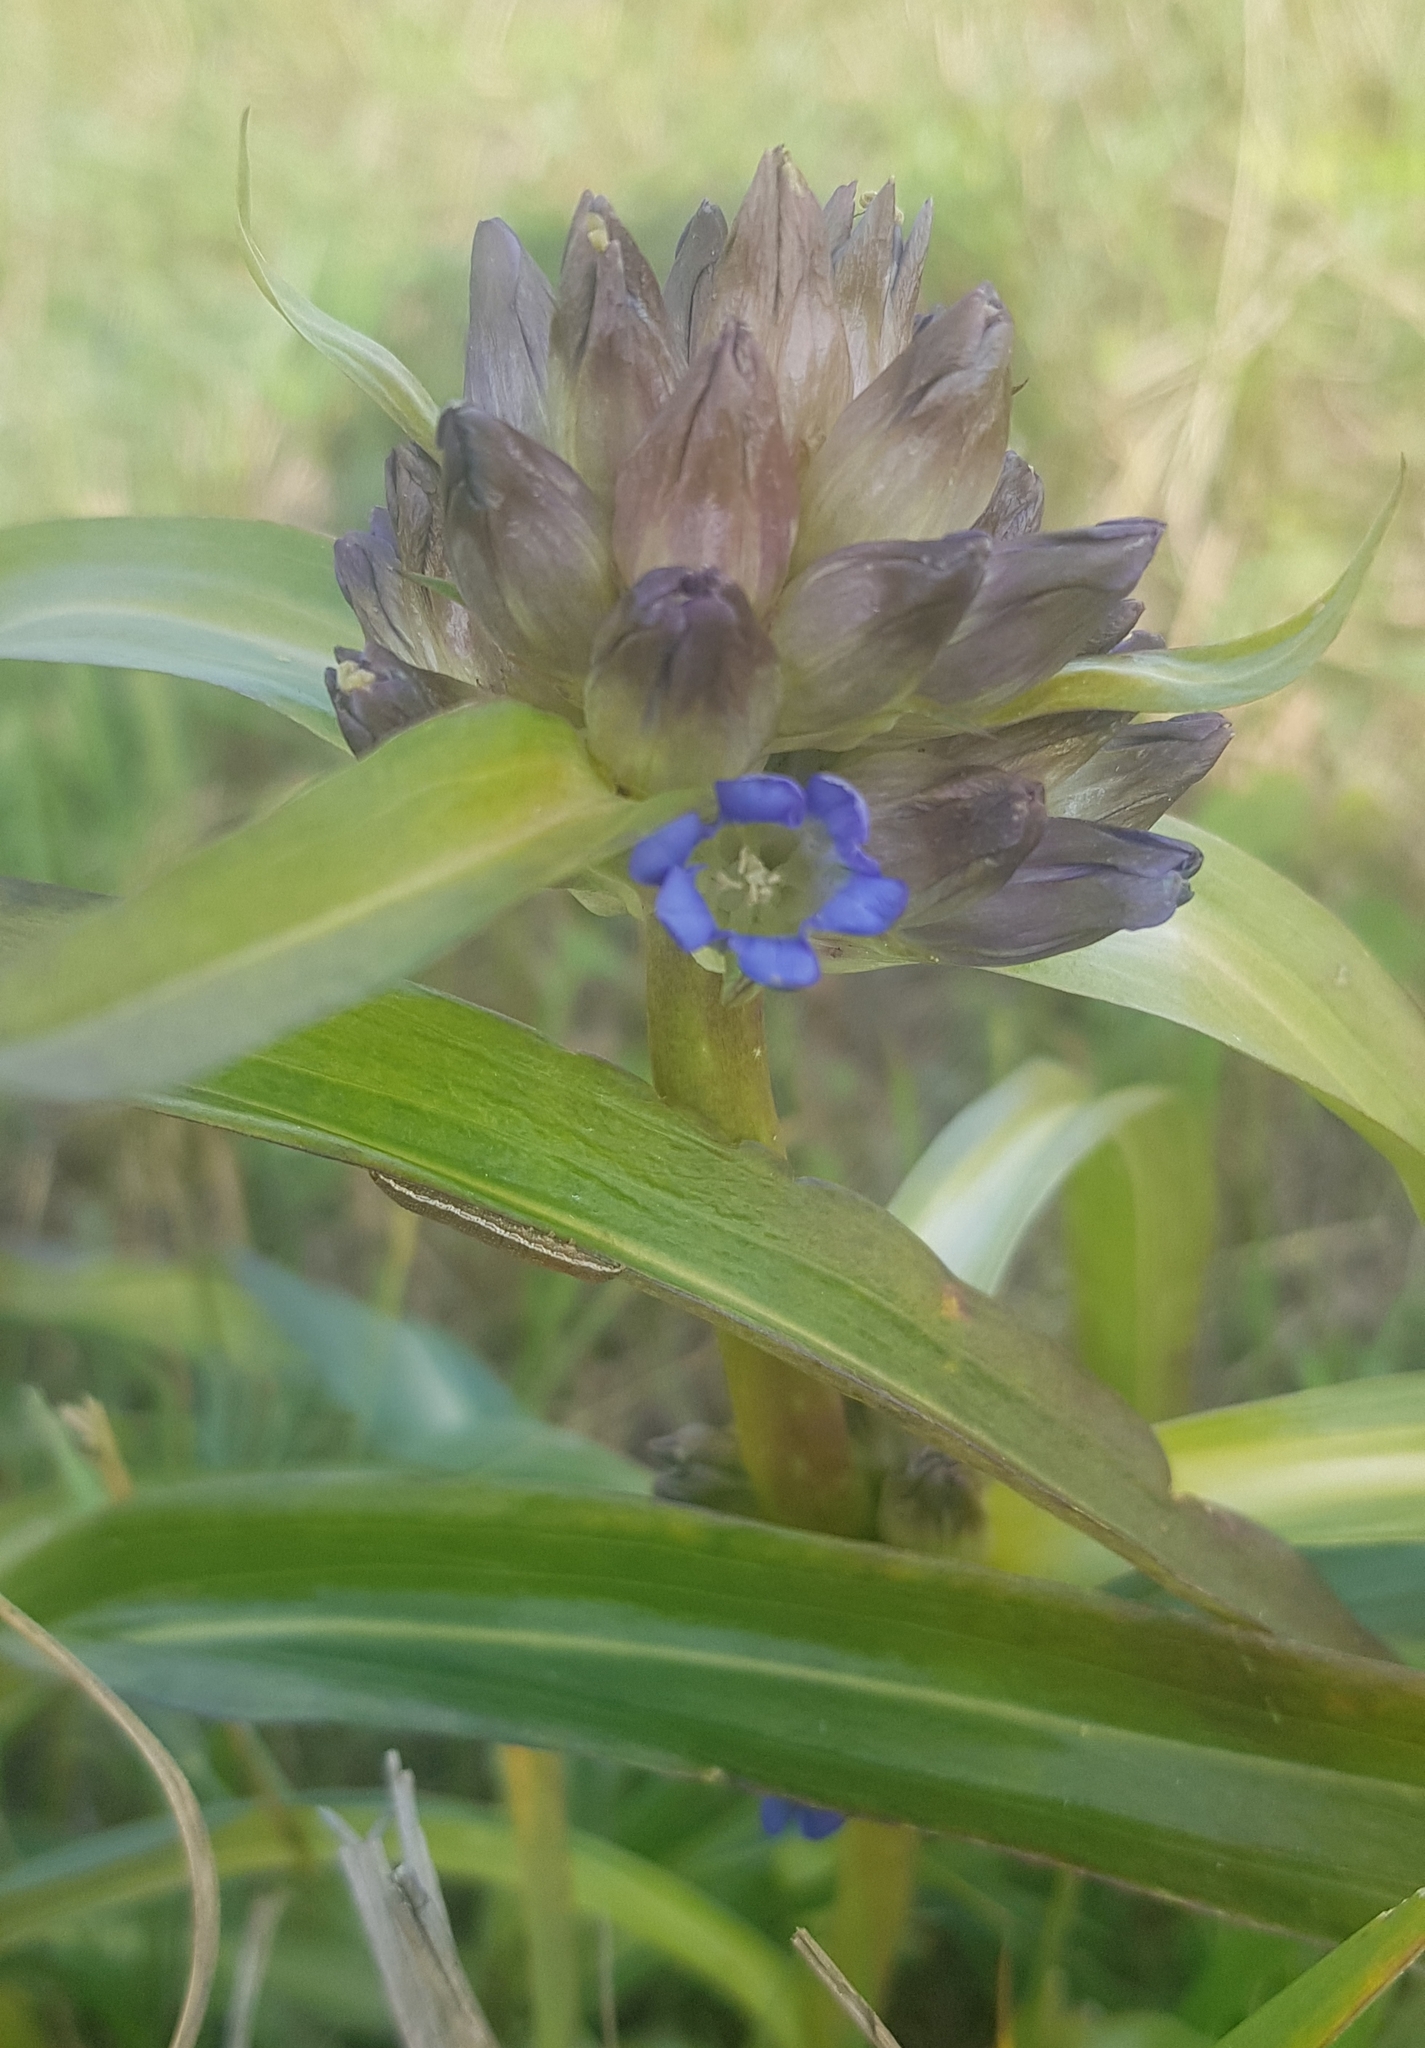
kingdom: Plantae
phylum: Tracheophyta
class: Magnoliopsida
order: Gentianales
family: Gentianaceae
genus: Gentiana
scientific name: Gentiana macrophylla
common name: Large-leaf gentian
